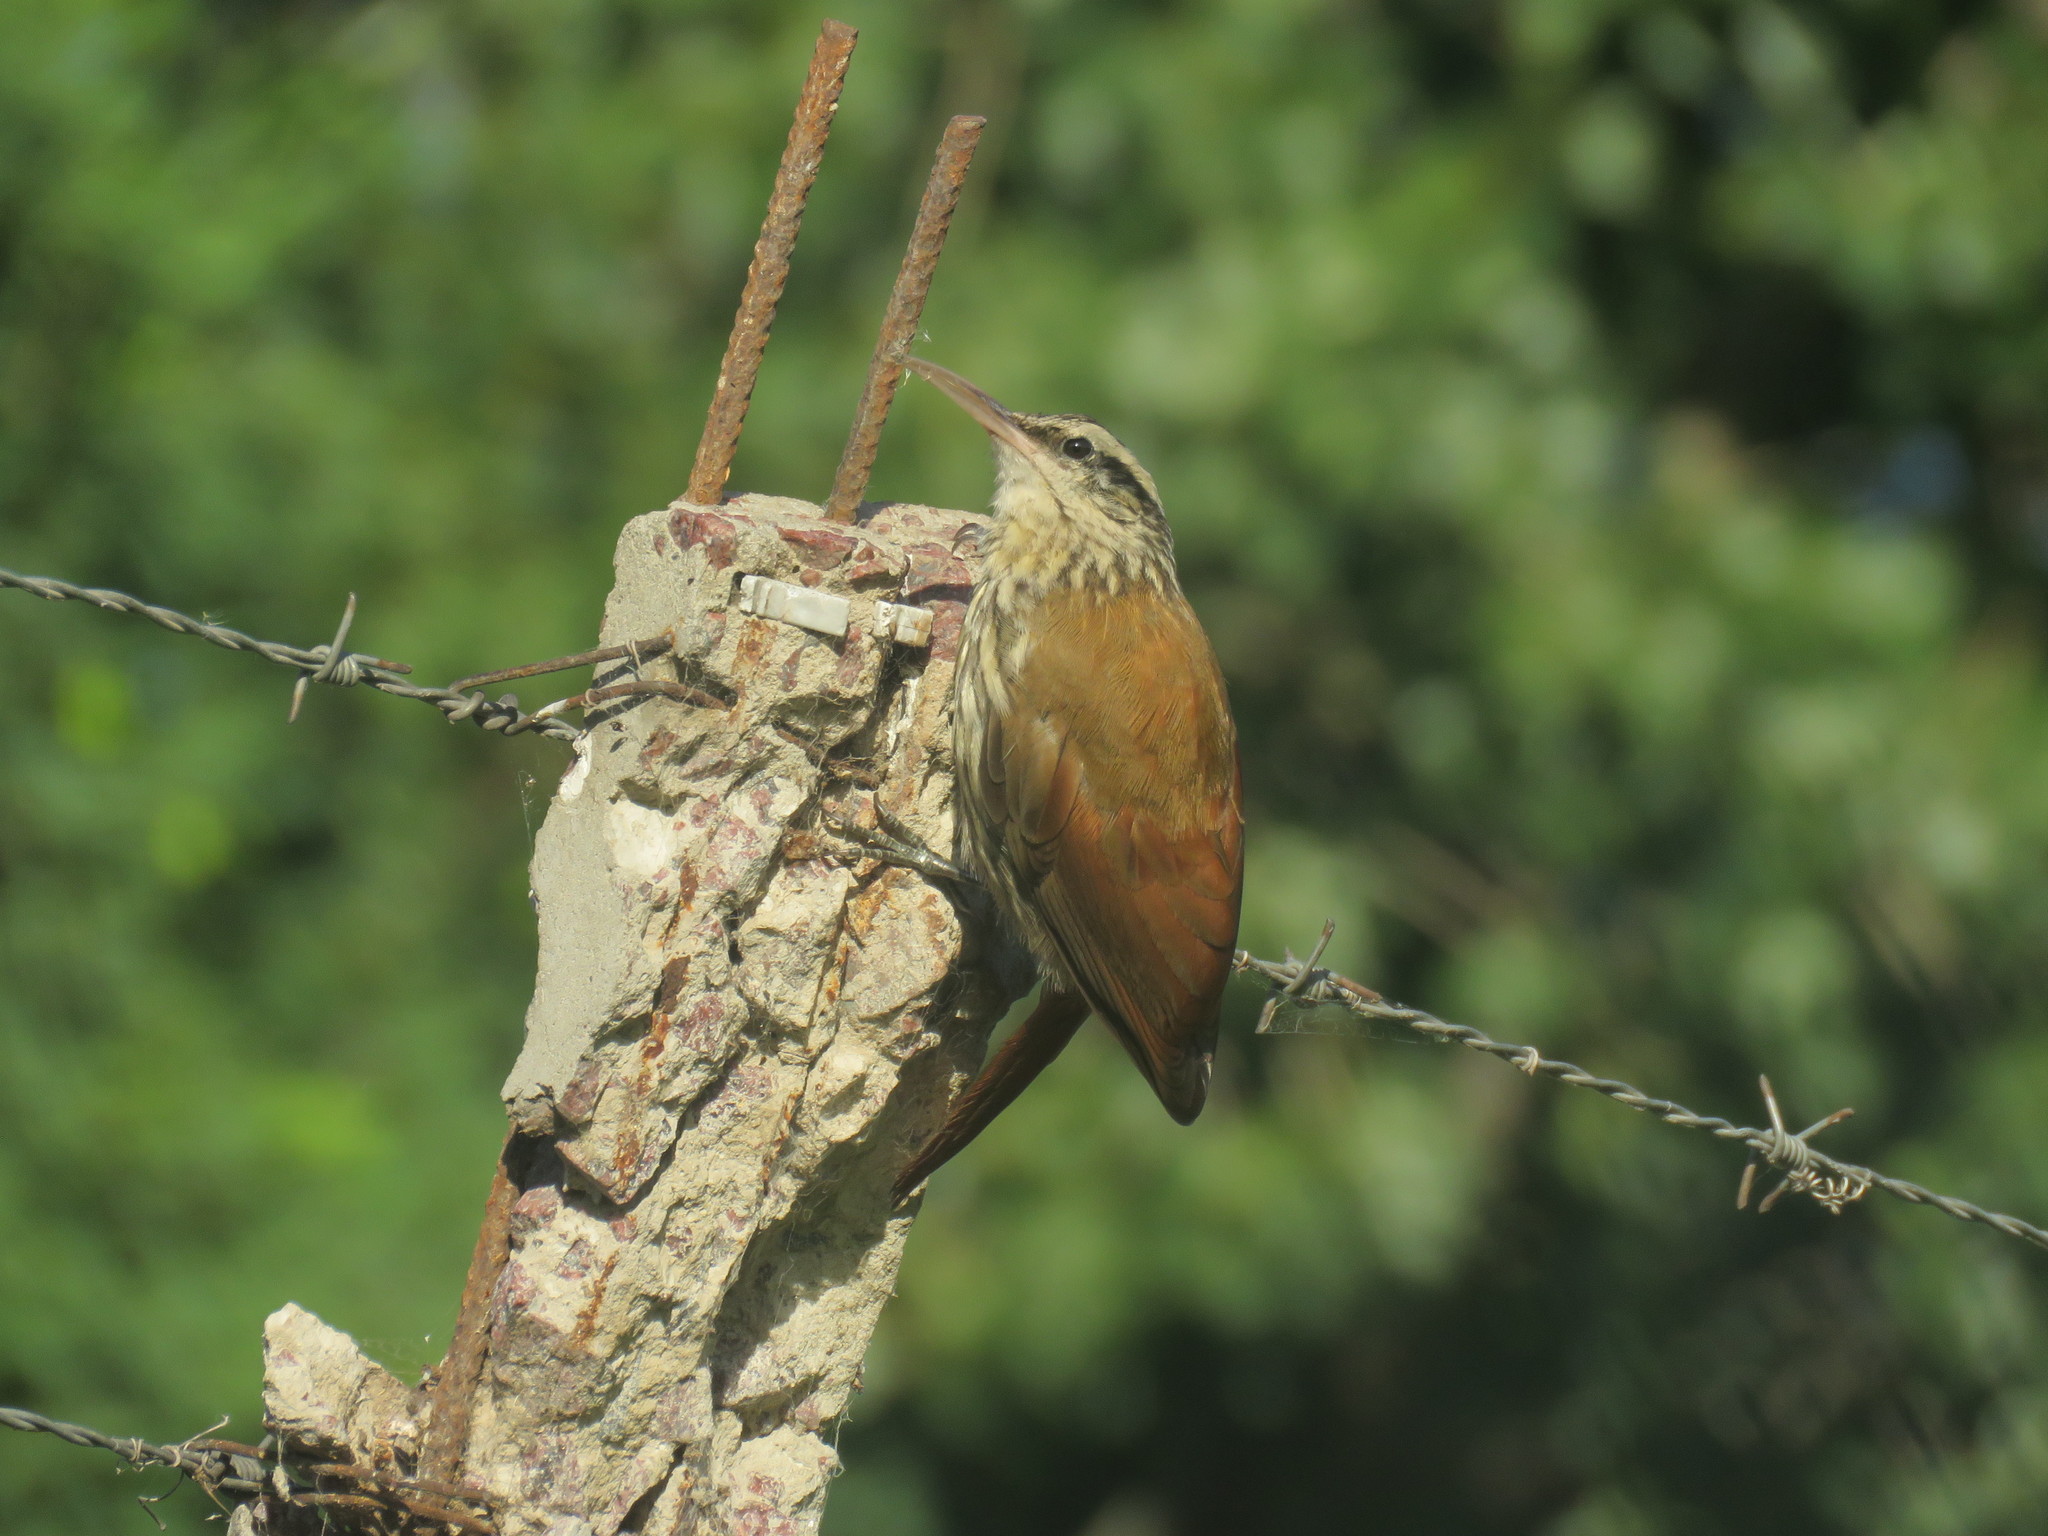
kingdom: Animalia
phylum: Chordata
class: Aves
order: Passeriformes
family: Furnariidae
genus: Lepidocolaptes
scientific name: Lepidocolaptes angustirostris
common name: Narrow-billed woodcreeper
